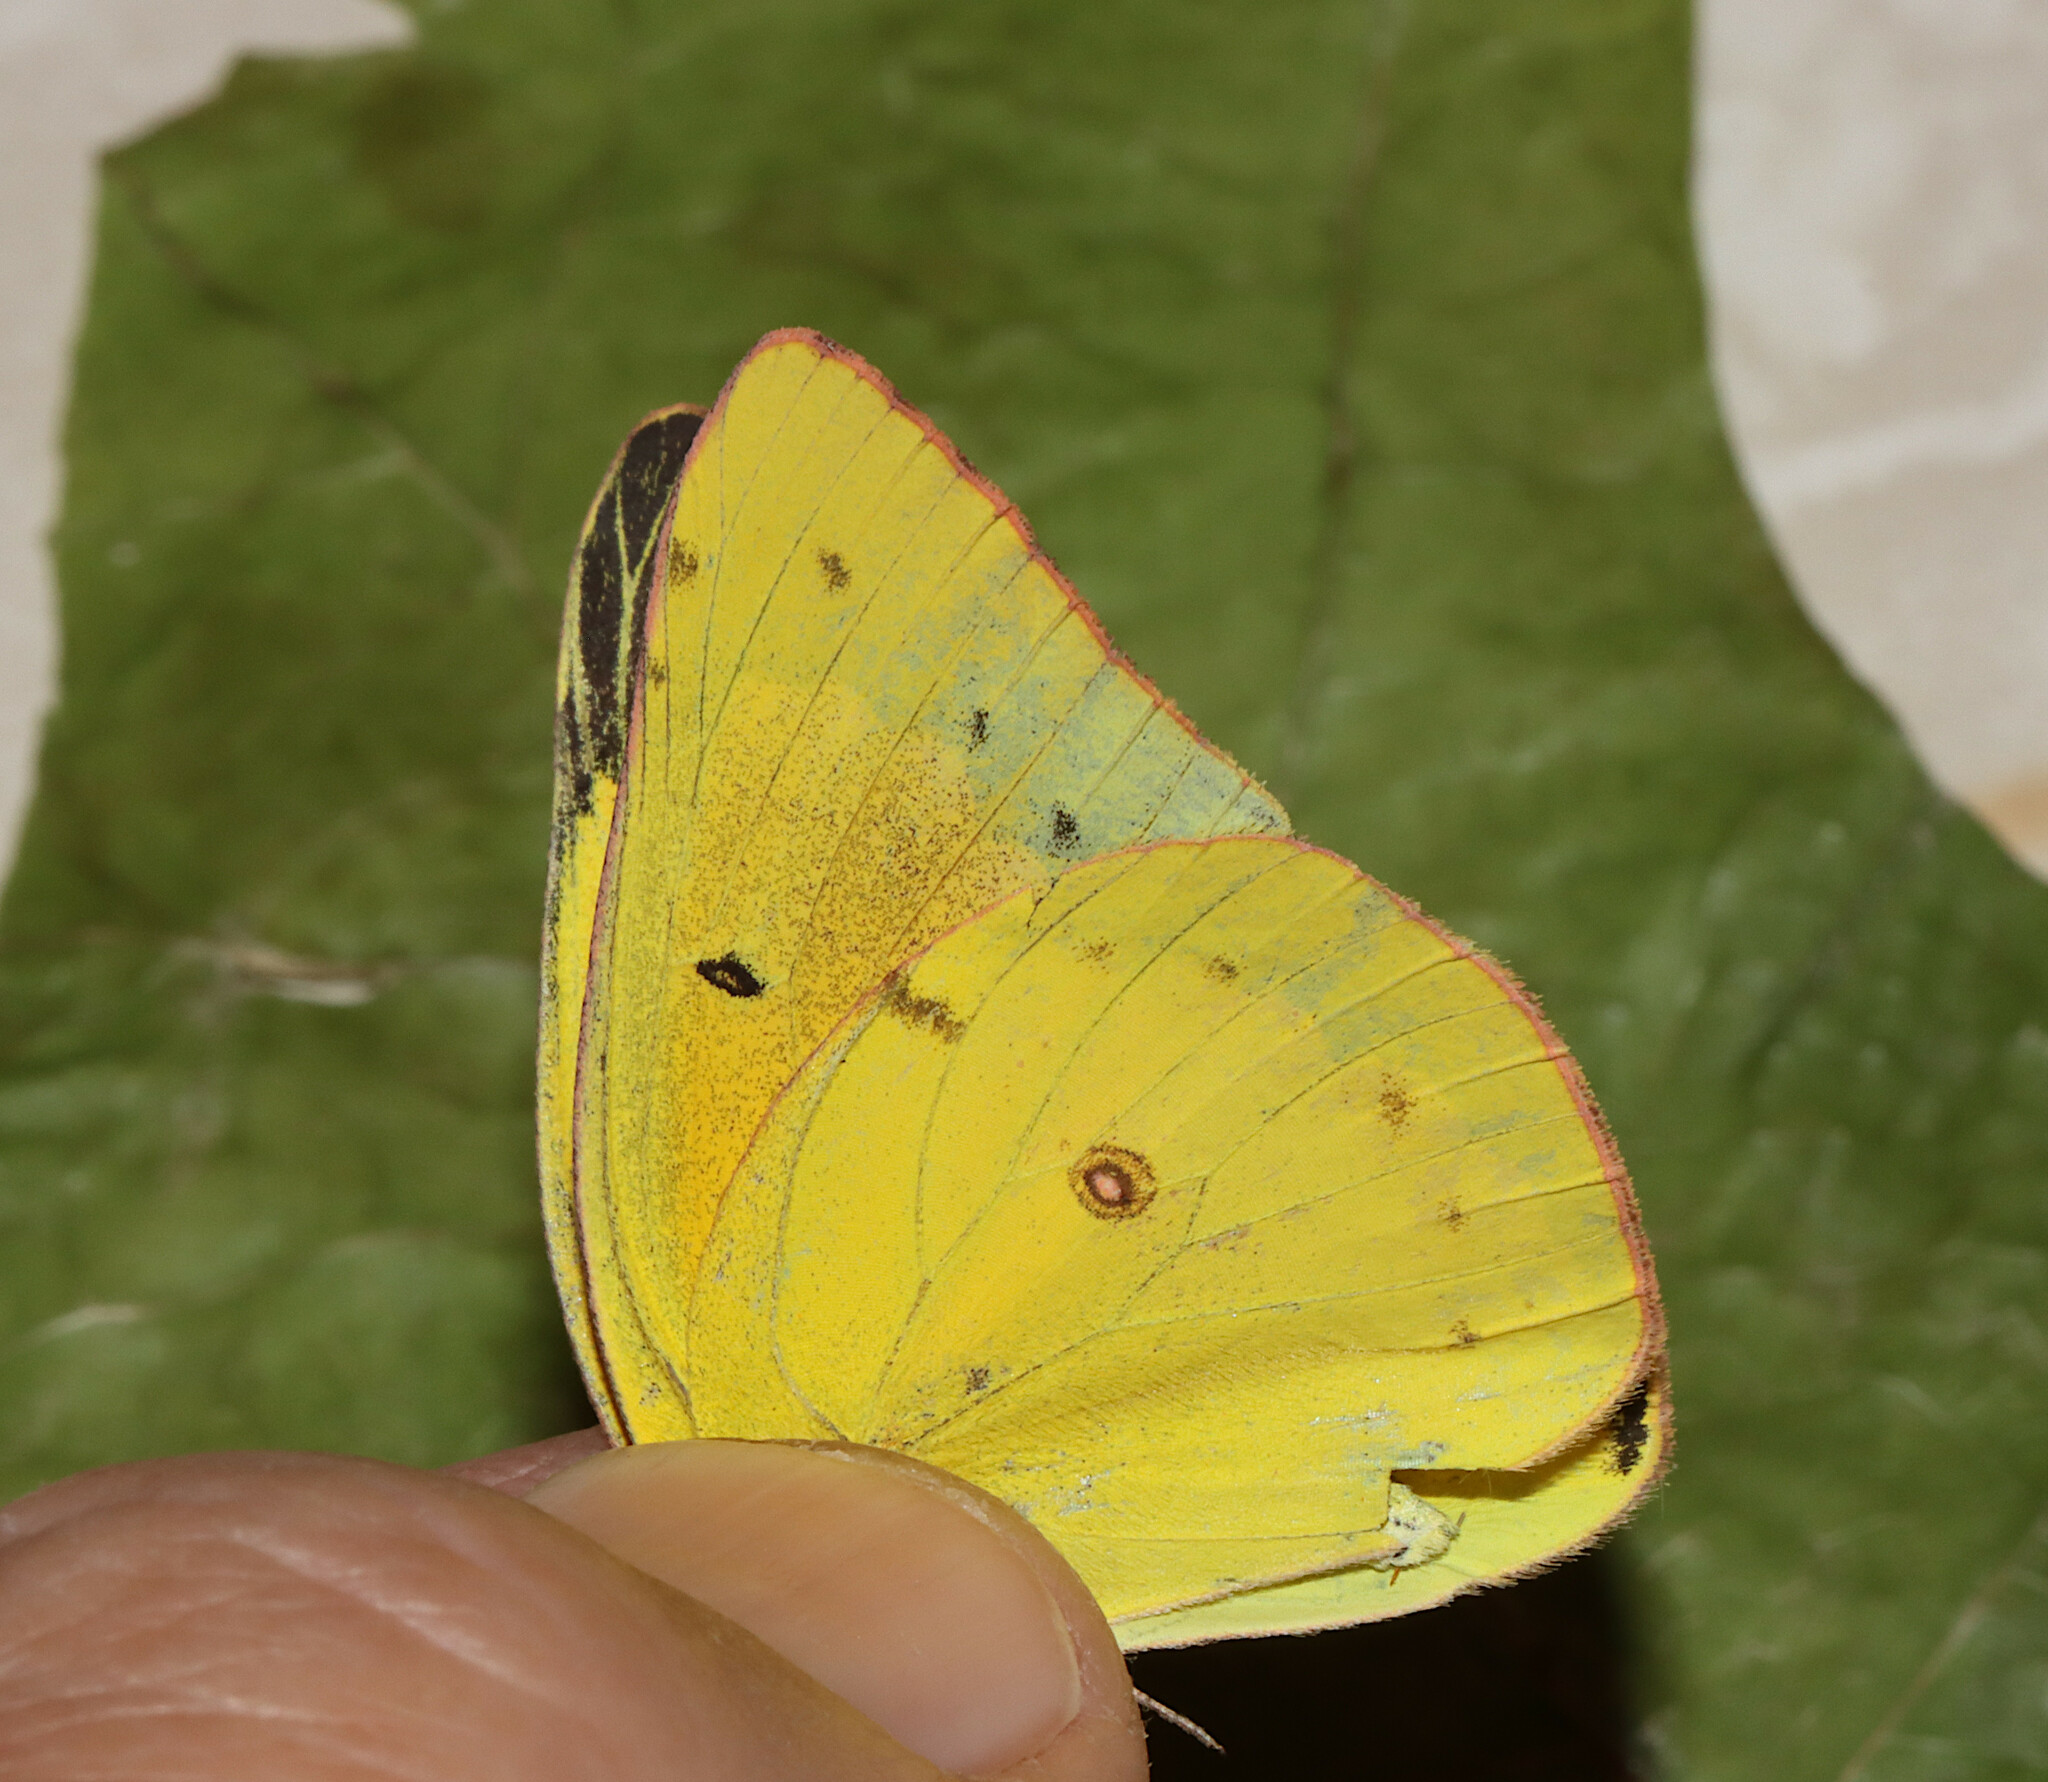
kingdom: Animalia
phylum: Arthropoda
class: Insecta
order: Lepidoptera
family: Pieridae
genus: Colias
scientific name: Colias eurytheme
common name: Alfalfa butterfly
